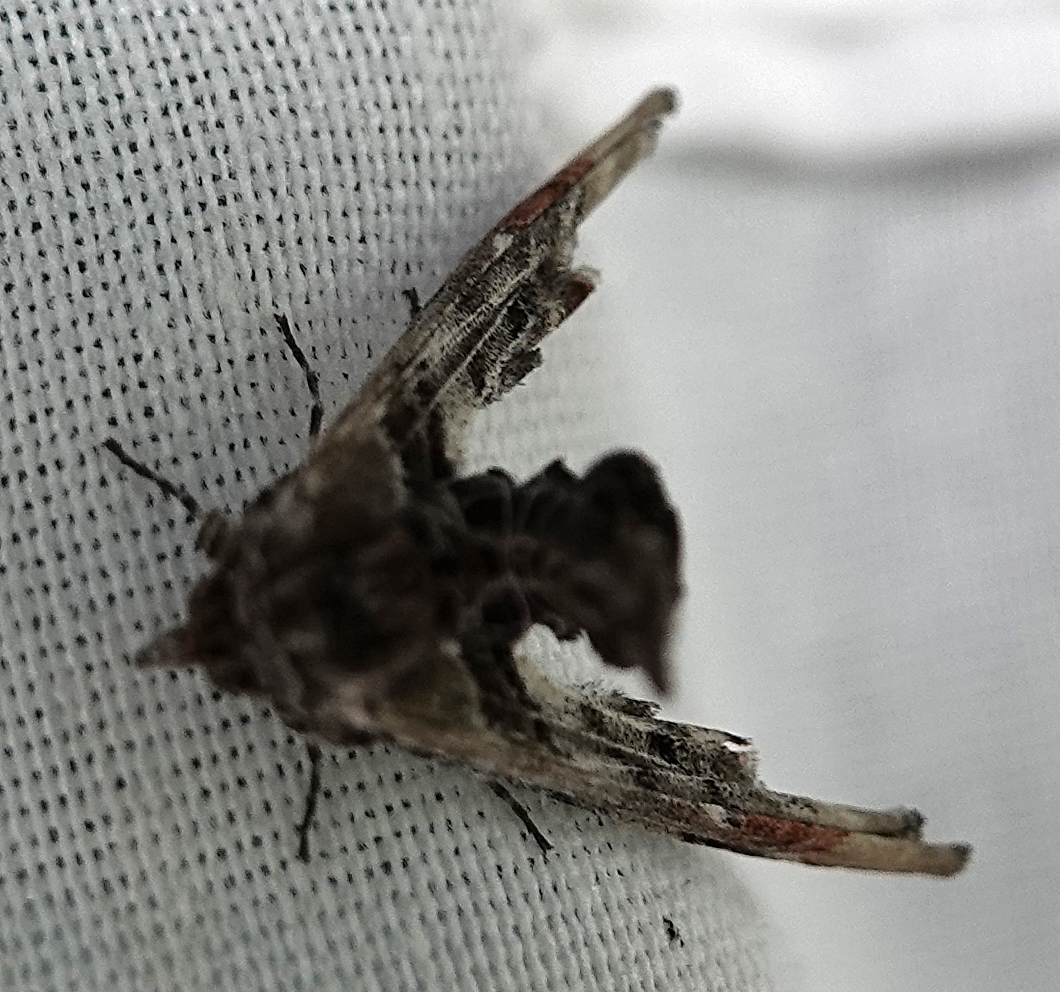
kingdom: Animalia
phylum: Arthropoda
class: Insecta
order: Lepidoptera
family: Euteliidae
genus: Marathyssa
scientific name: Marathyssa basalis
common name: Light marathyssa moth
